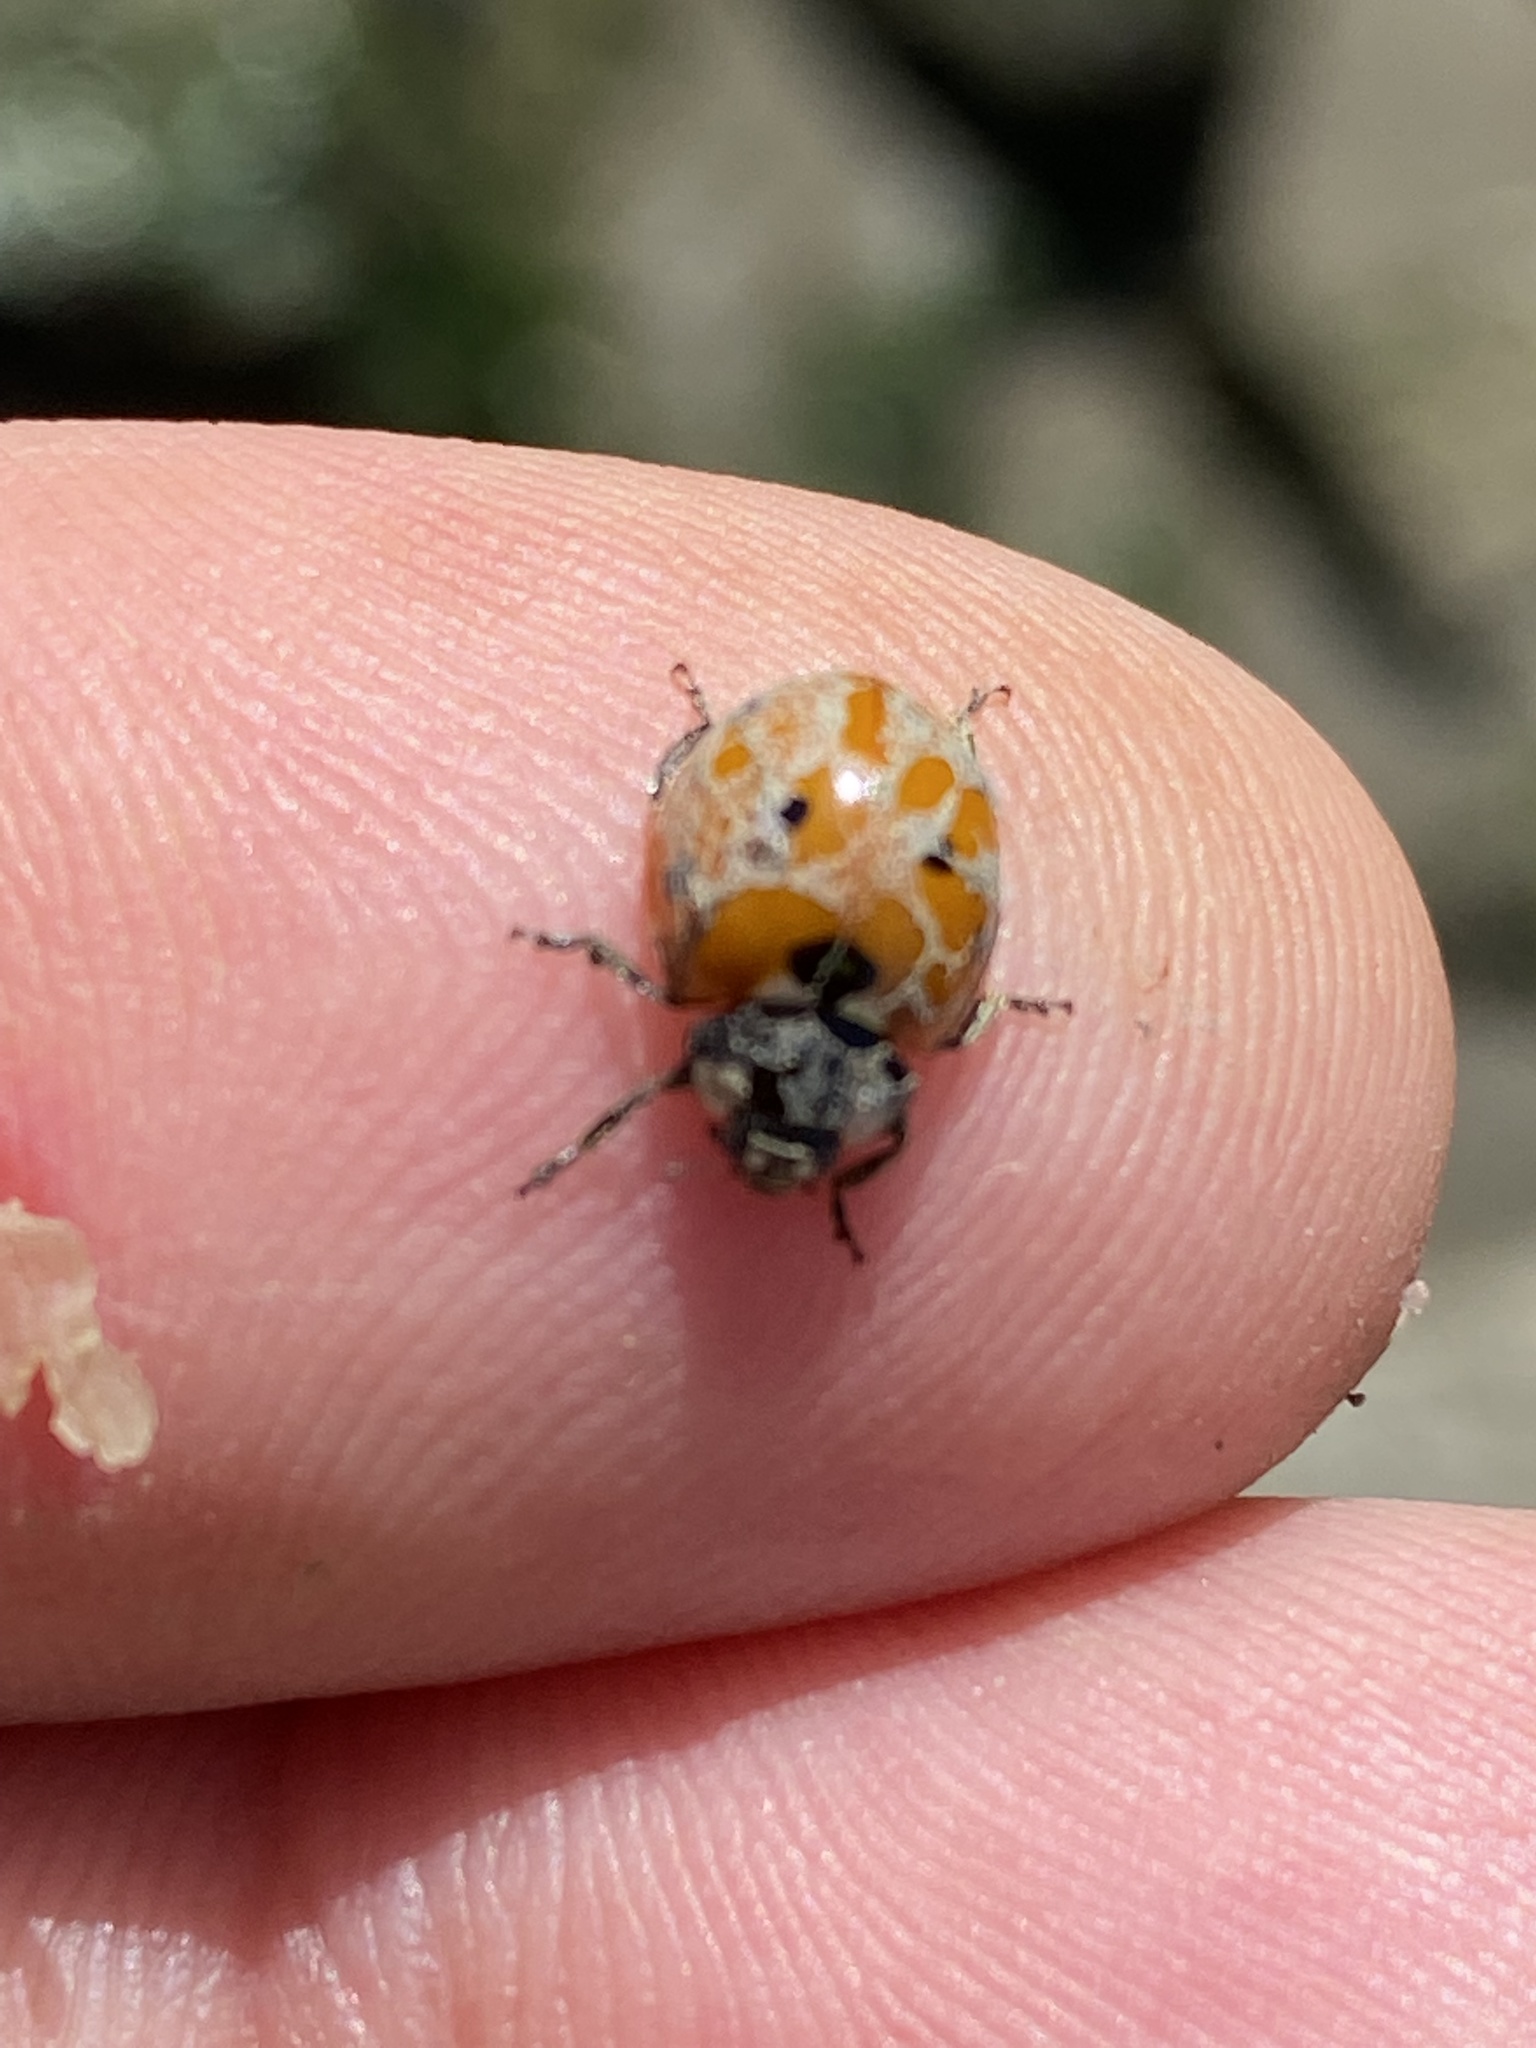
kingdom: Animalia
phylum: Arthropoda
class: Insecta
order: Coleoptera
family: Coccinellidae
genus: Coccinella
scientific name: Coccinella septempunctata
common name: Sevenspotted lady beetle
